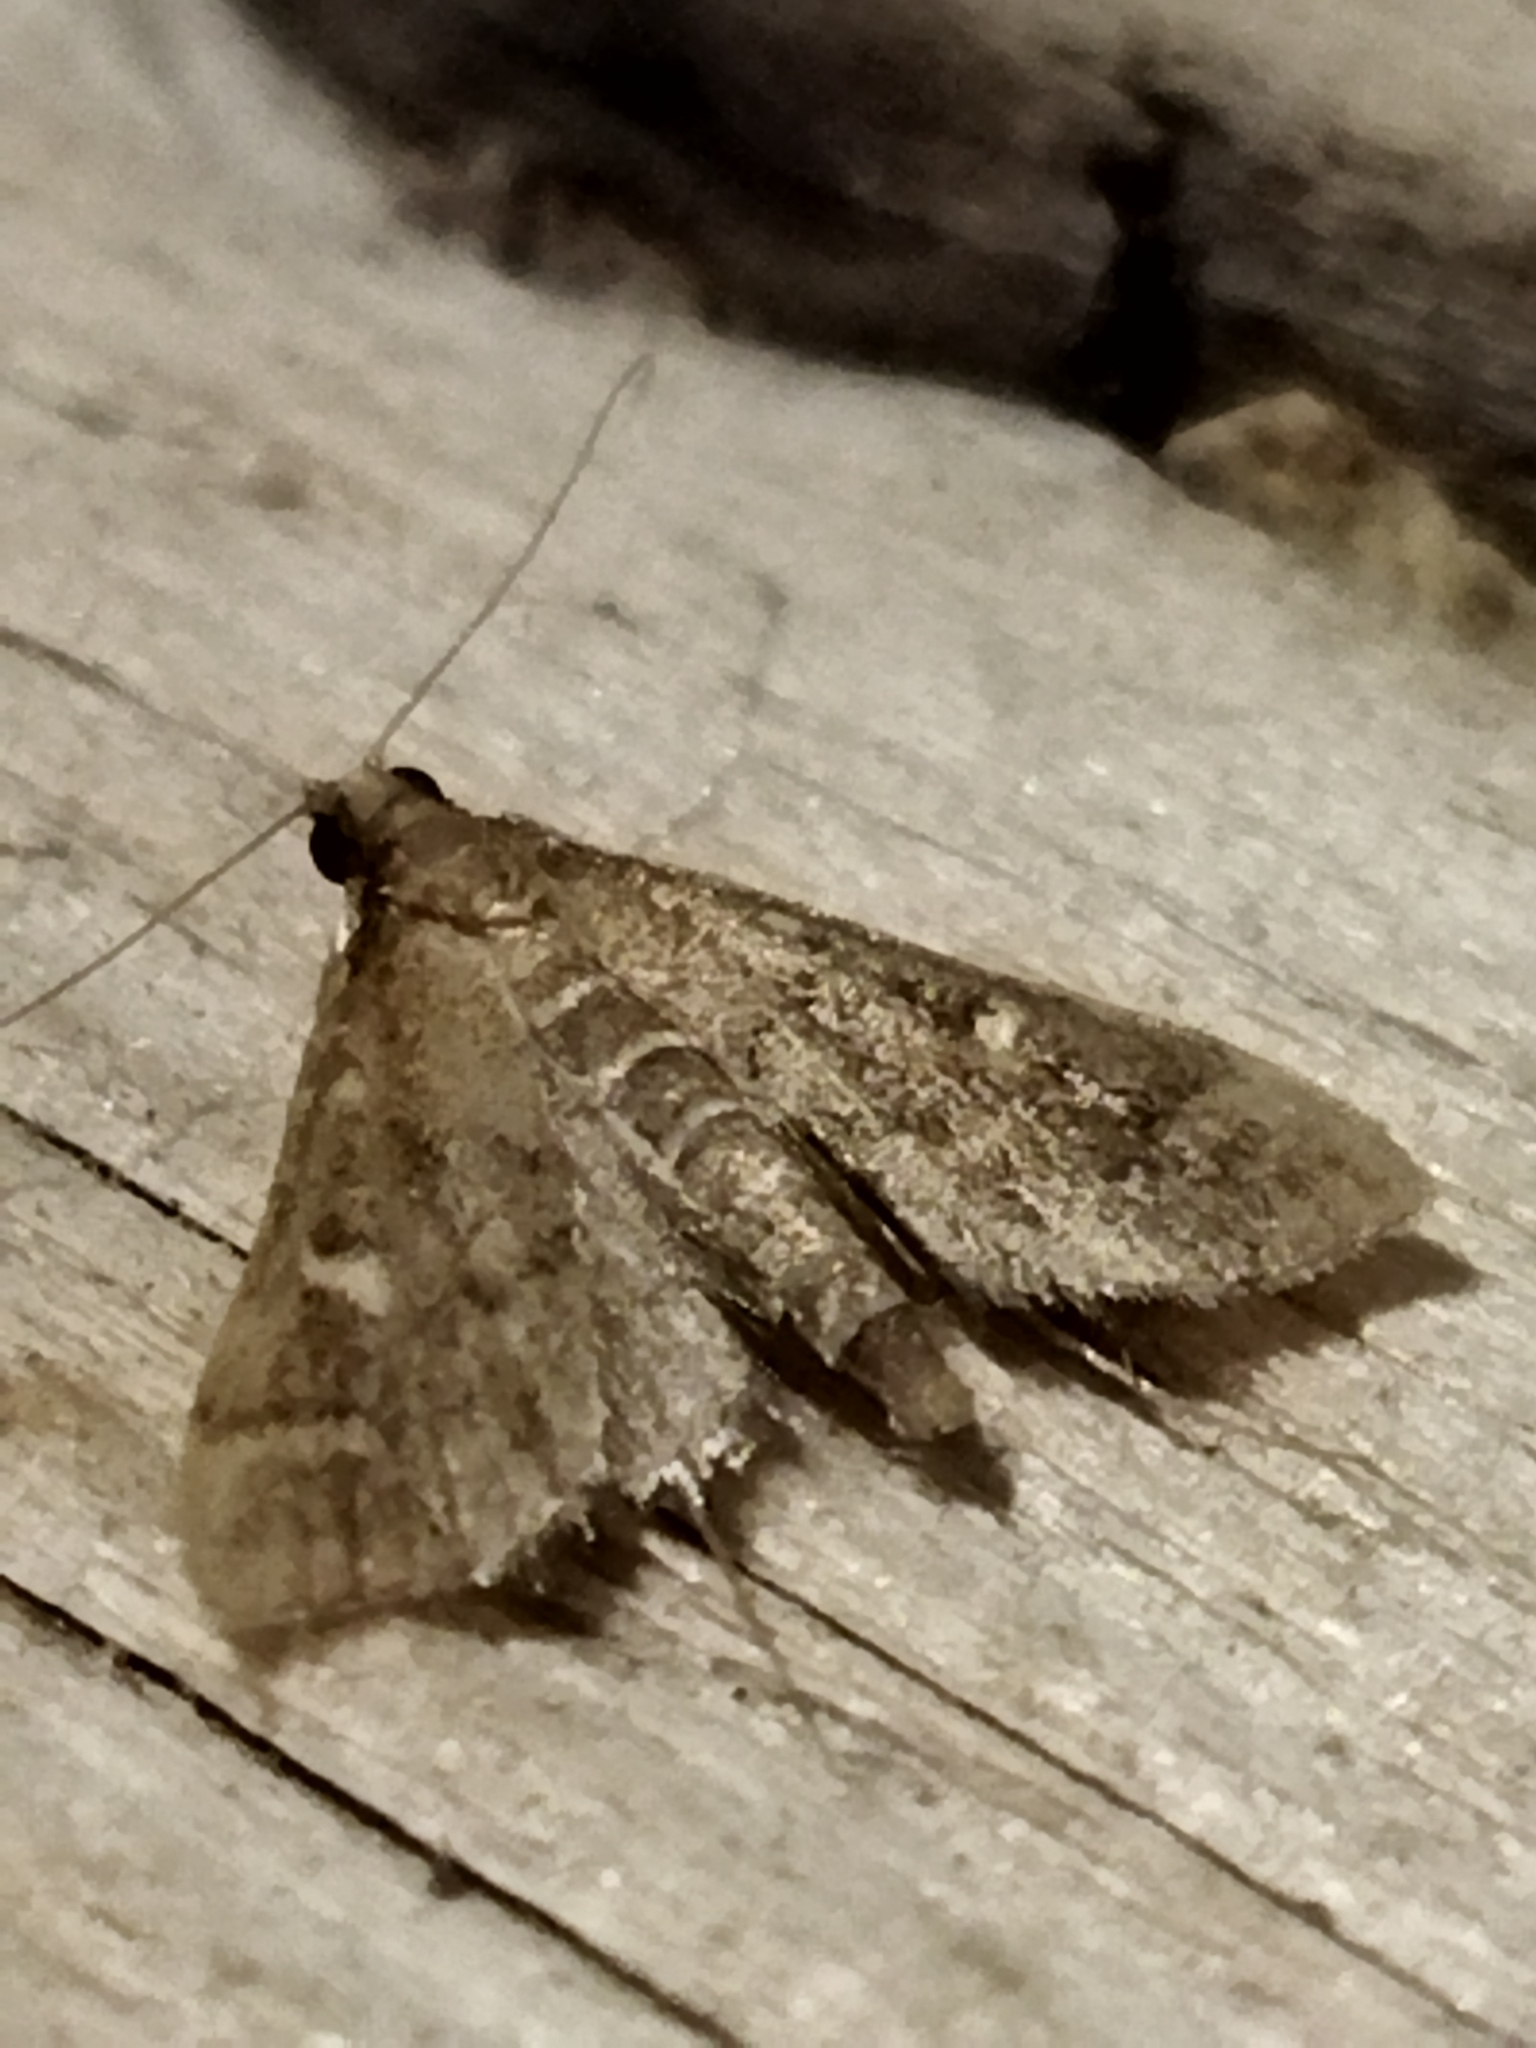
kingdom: Animalia
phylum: Arthropoda
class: Insecta
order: Lepidoptera
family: Crambidae
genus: Stenia
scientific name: Stenia Dolicharthria punctalis
